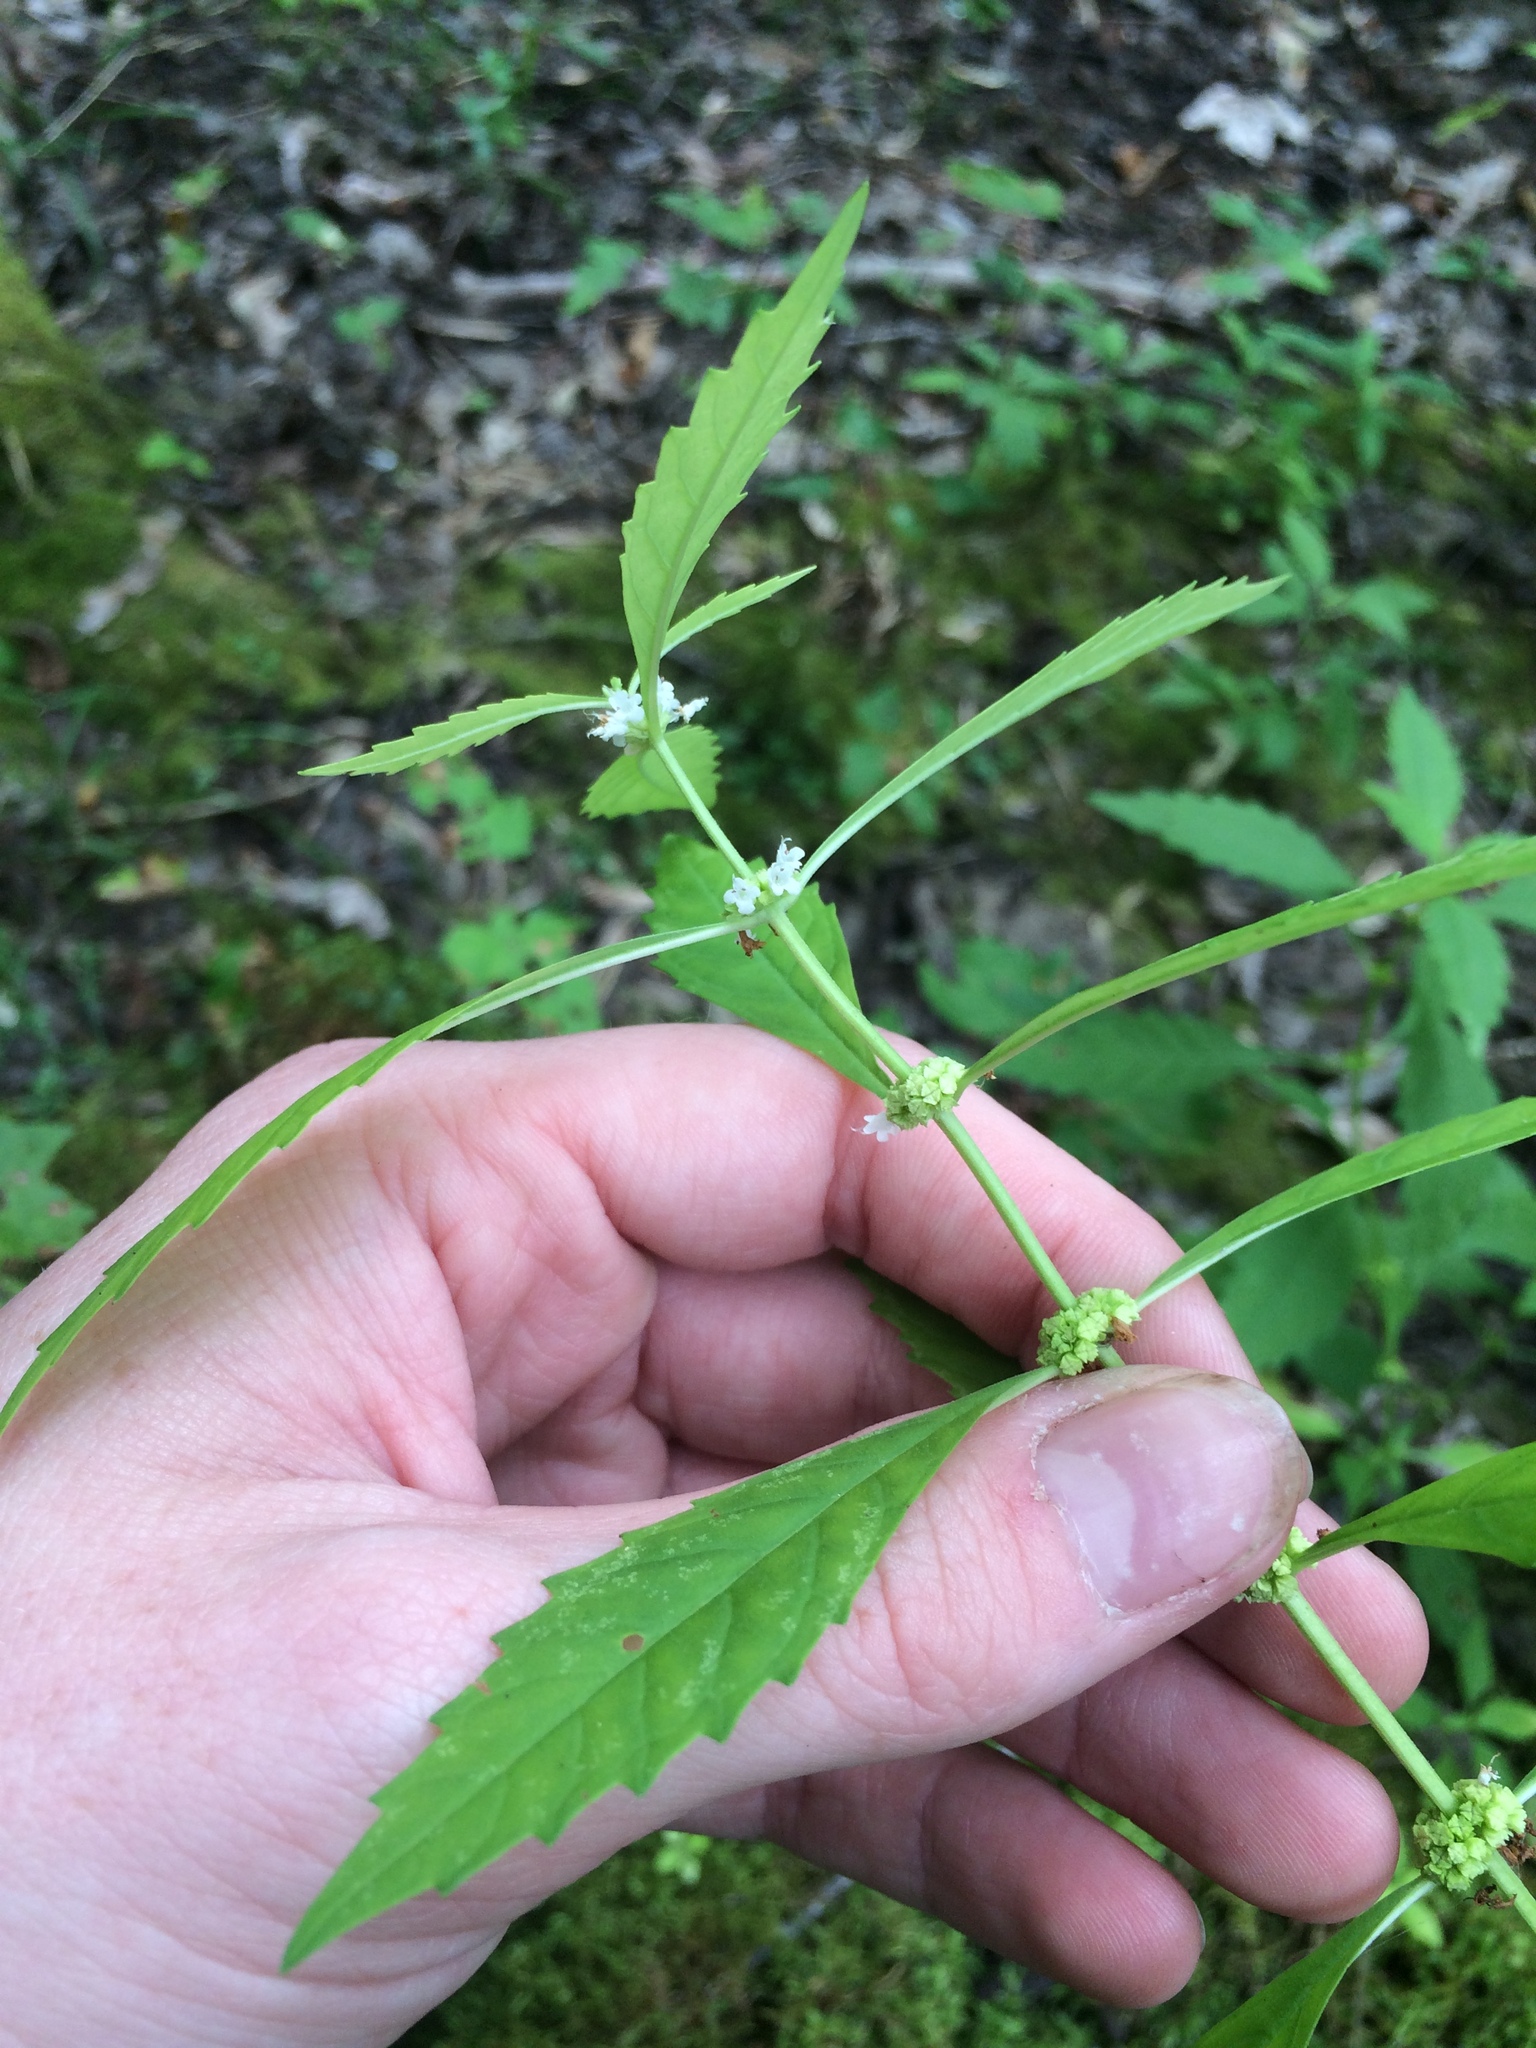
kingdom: Plantae
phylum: Tracheophyta
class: Magnoliopsida
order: Lamiales
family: Lamiaceae
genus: Lycopus
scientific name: Lycopus uniflorus
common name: Northern bugleweed
